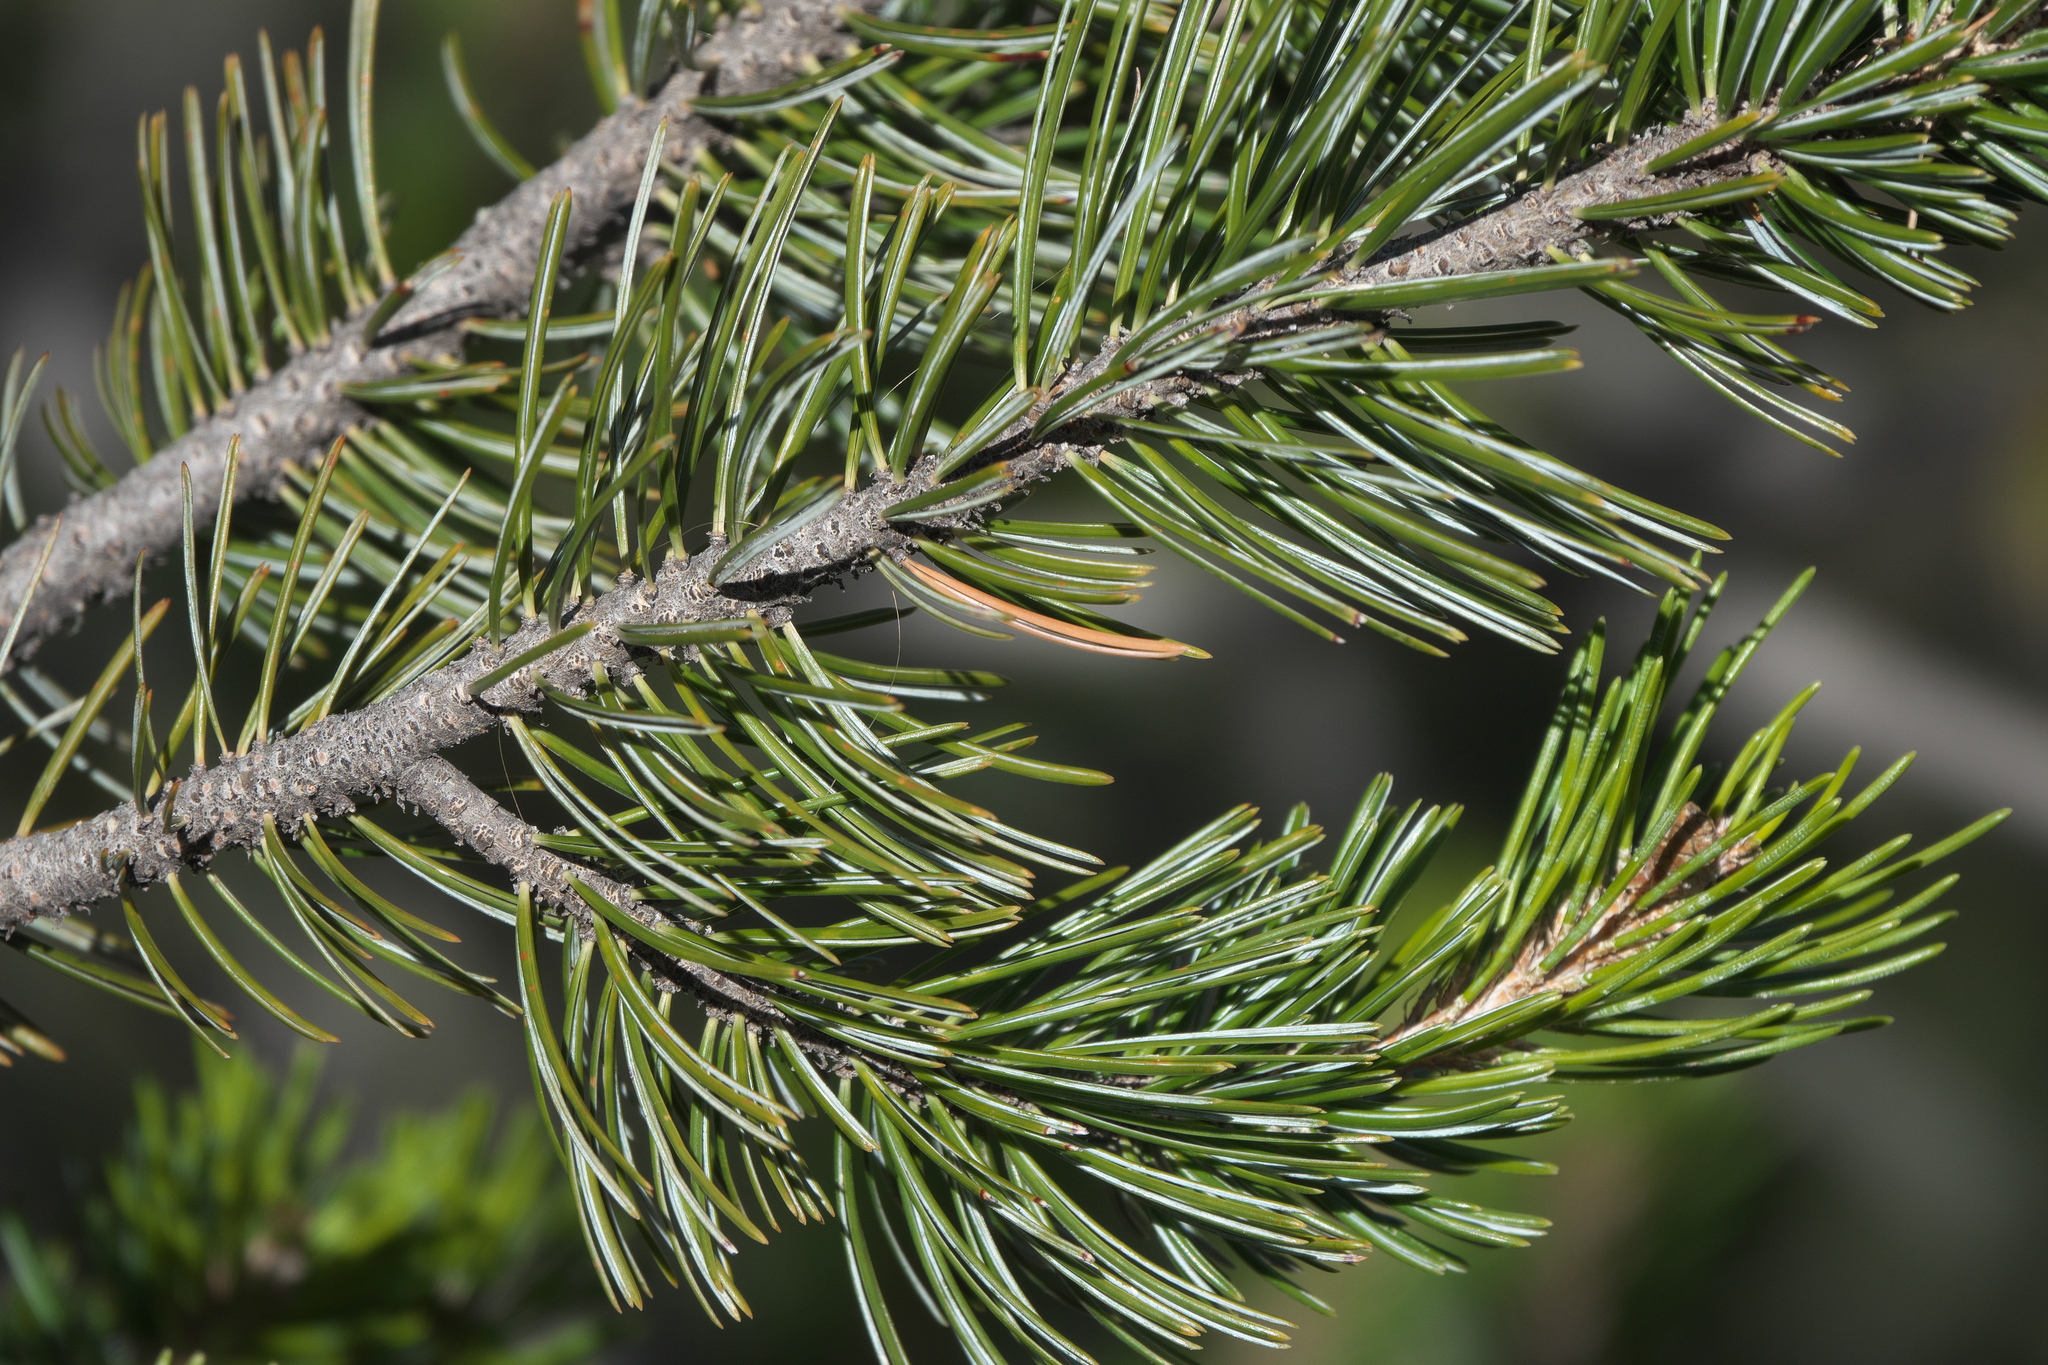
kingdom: Plantae
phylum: Tracheophyta
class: Pinopsida
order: Pinales
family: Pinaceae
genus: Pinus
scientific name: Pinus cembroides
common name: Mexican nut pine
